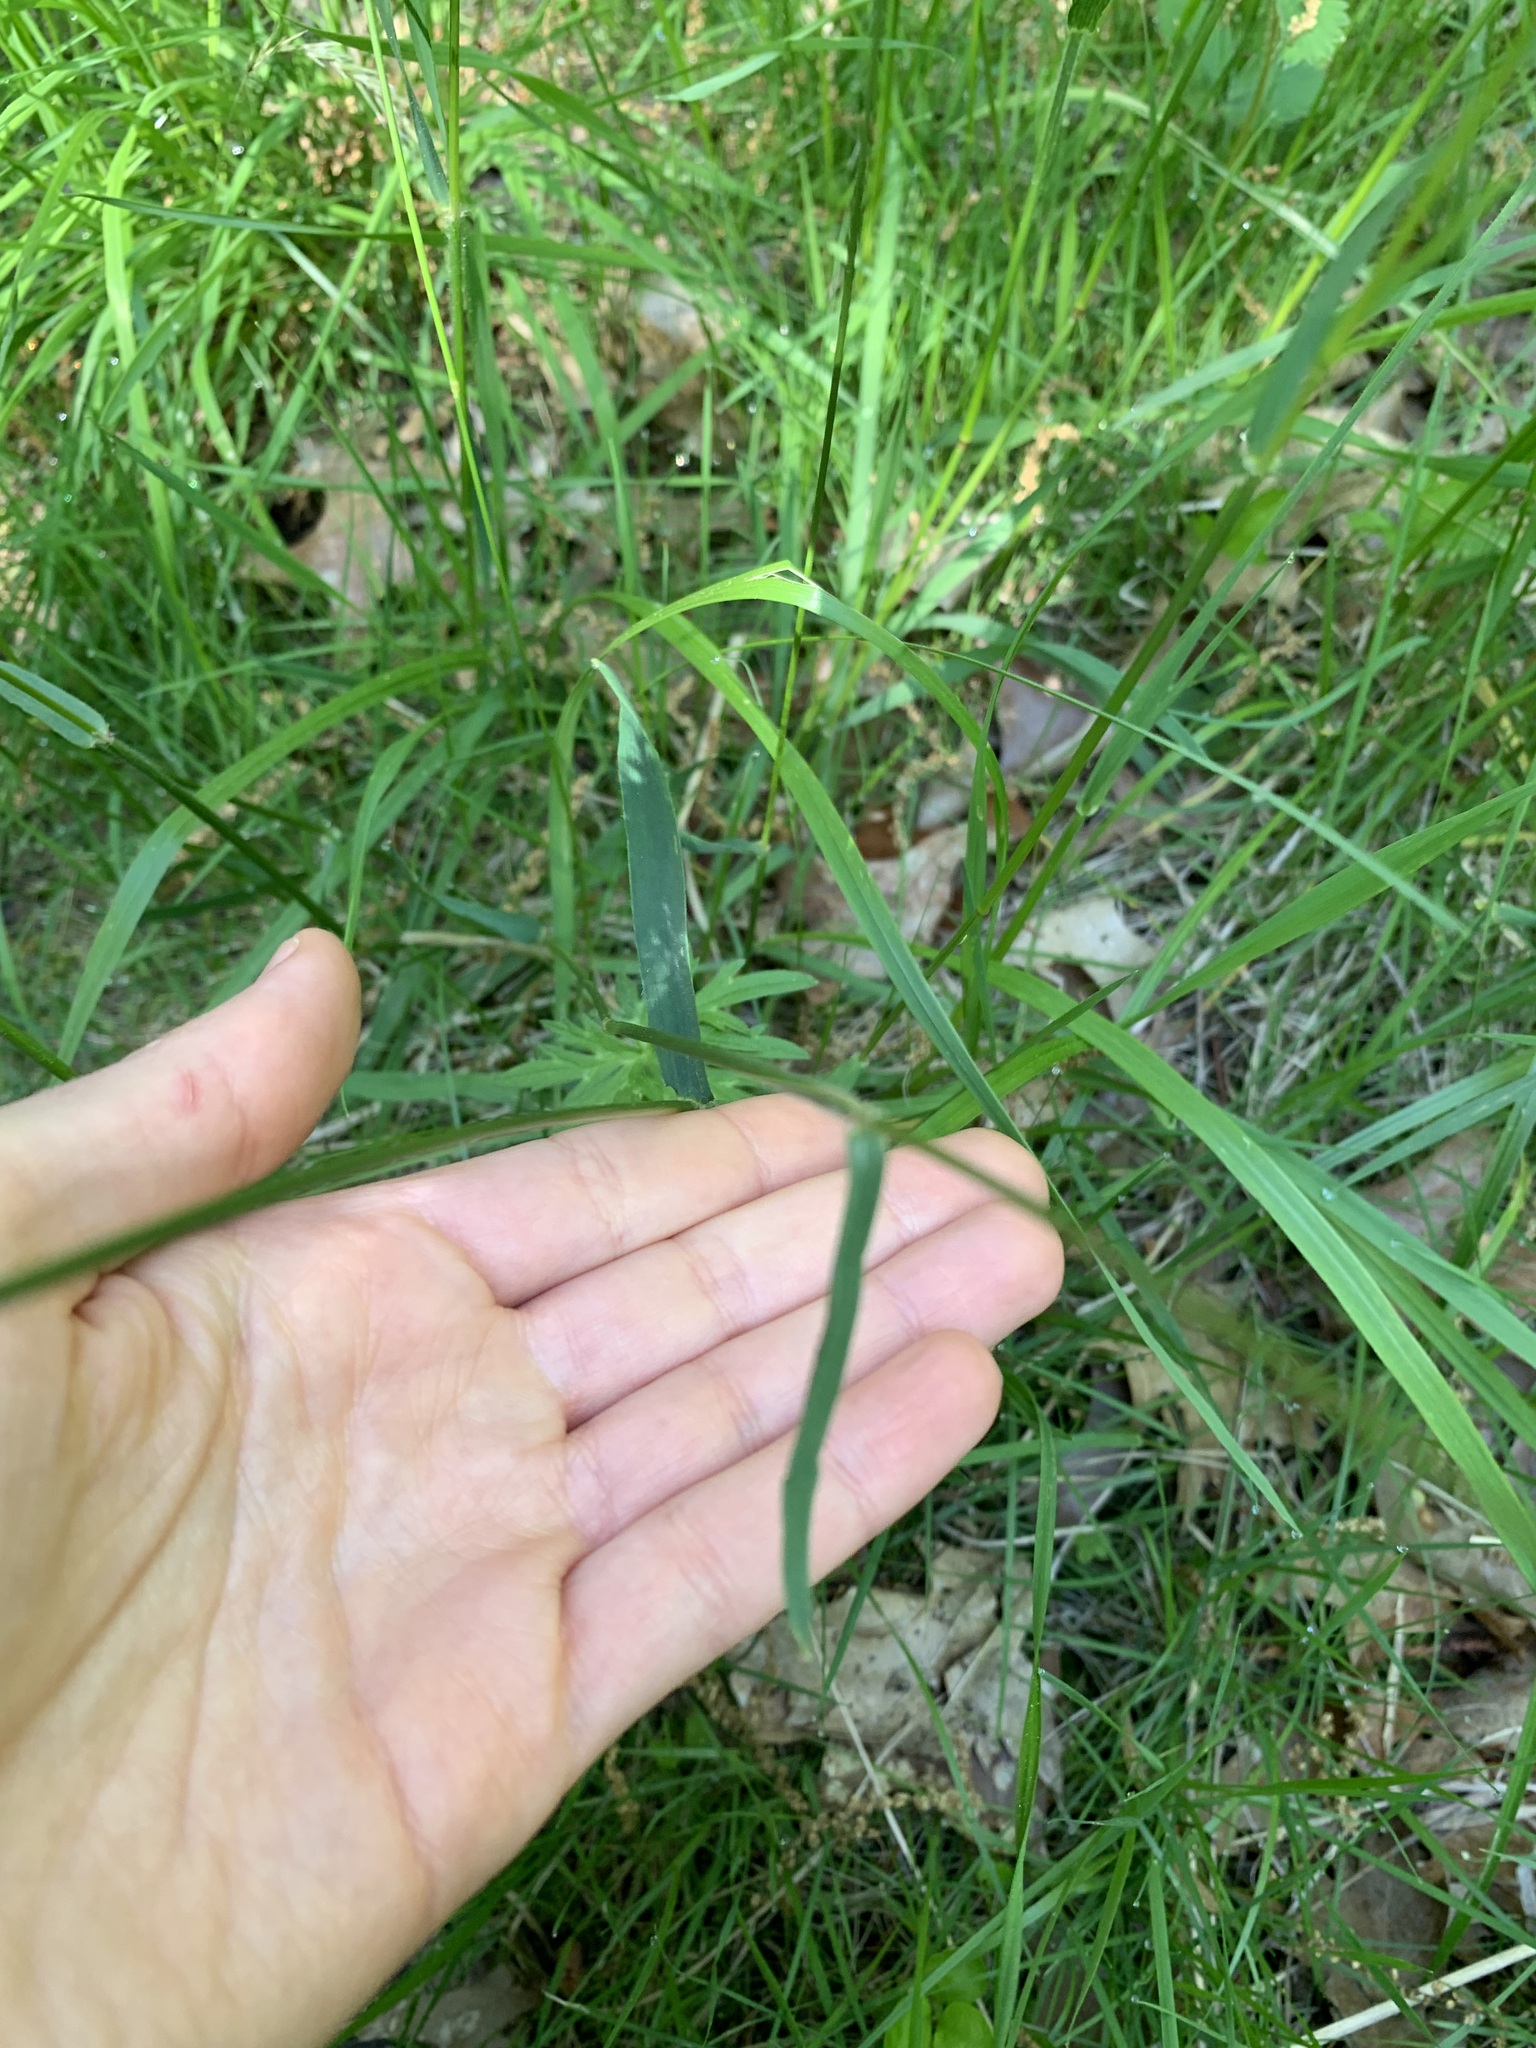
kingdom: Plantae
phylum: Tracheophyta
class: Liliopsida
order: Poales
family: Poaceae
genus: Anthoxanthum
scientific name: Anthoxanthum odoratum
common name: Sweet vernalgrass
